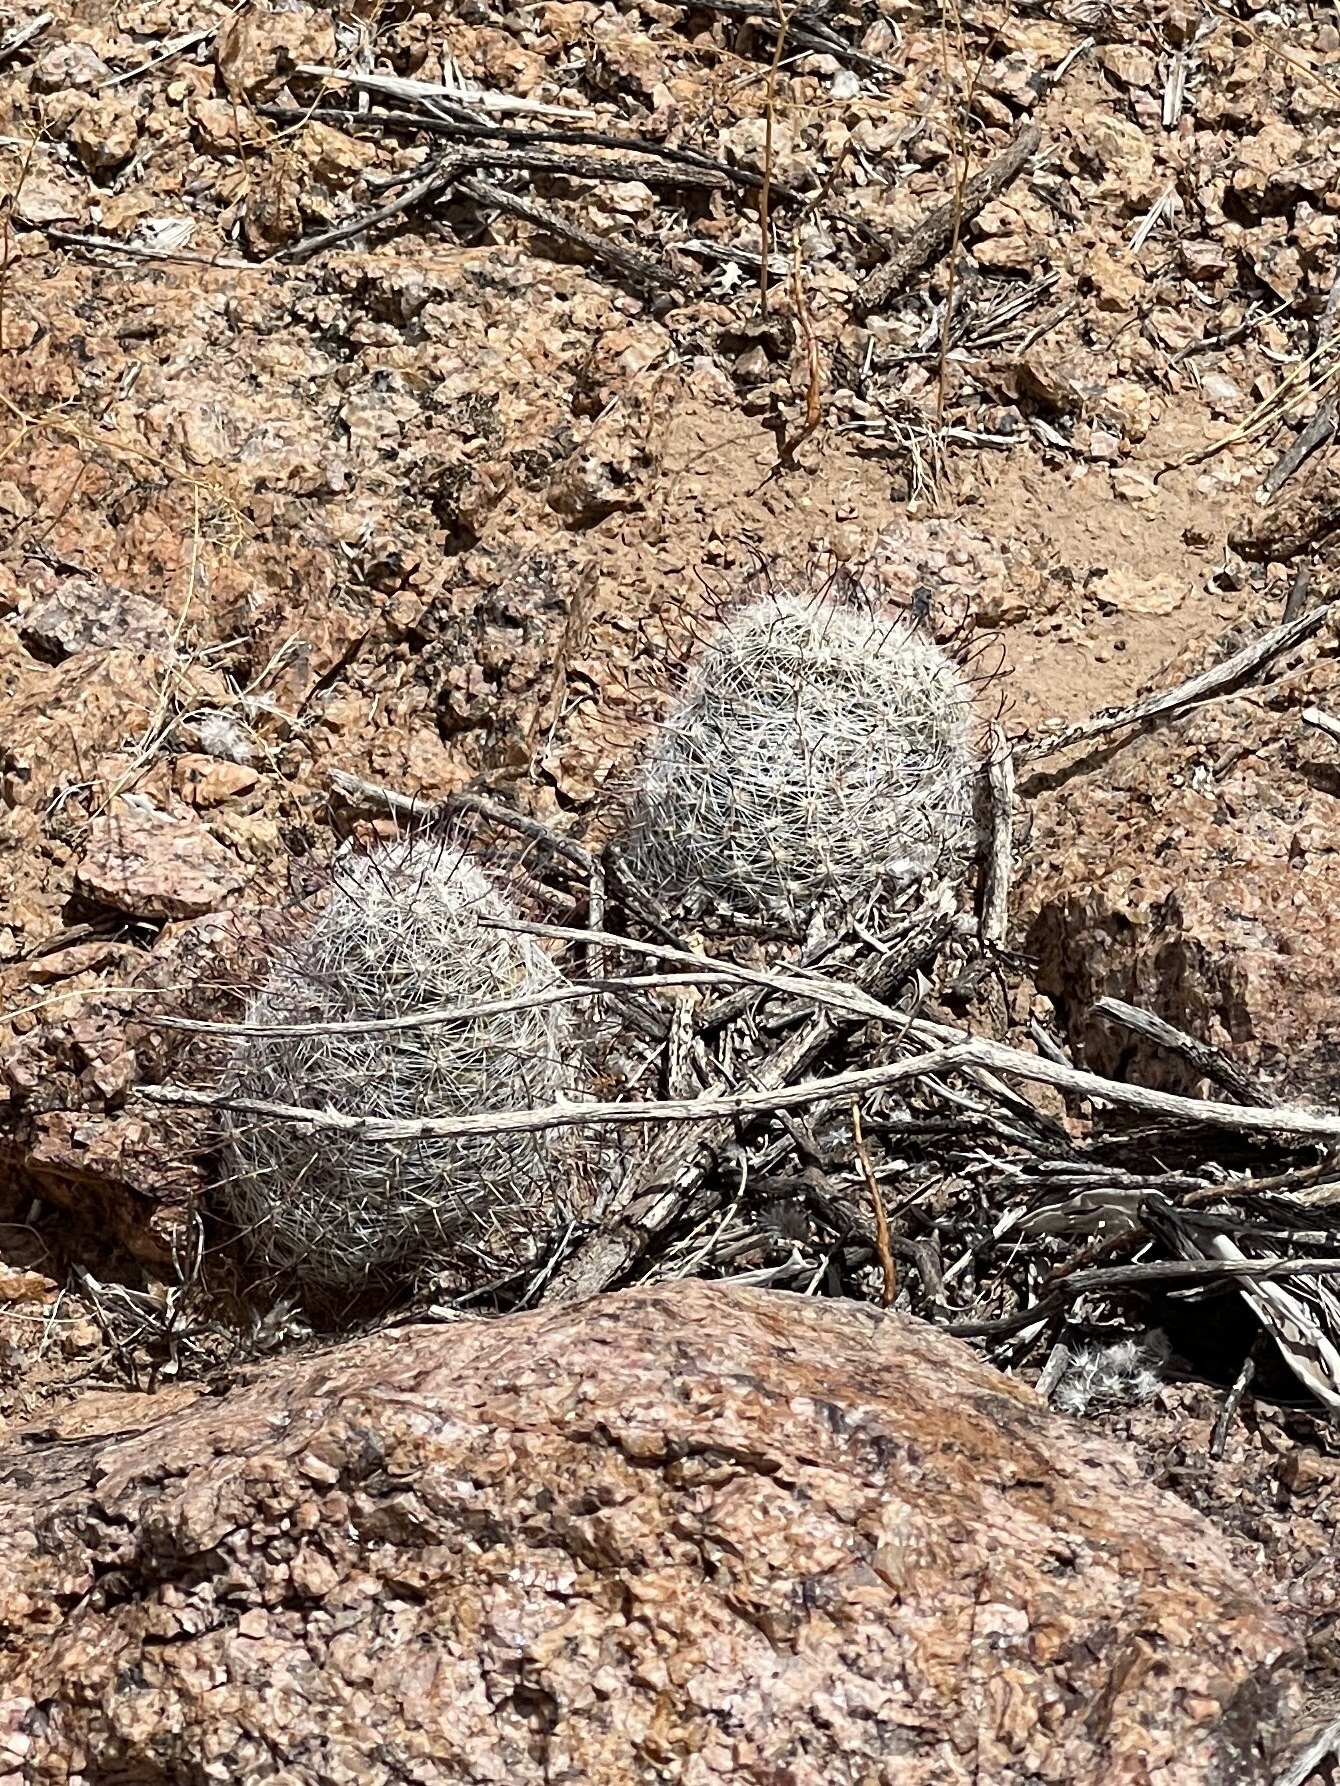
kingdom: Plantae
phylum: Tracheophyta
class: Magnoliopsida
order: Caryophyllales
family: Cactaceae
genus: Cochemiea
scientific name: Cochemiea grahamii
